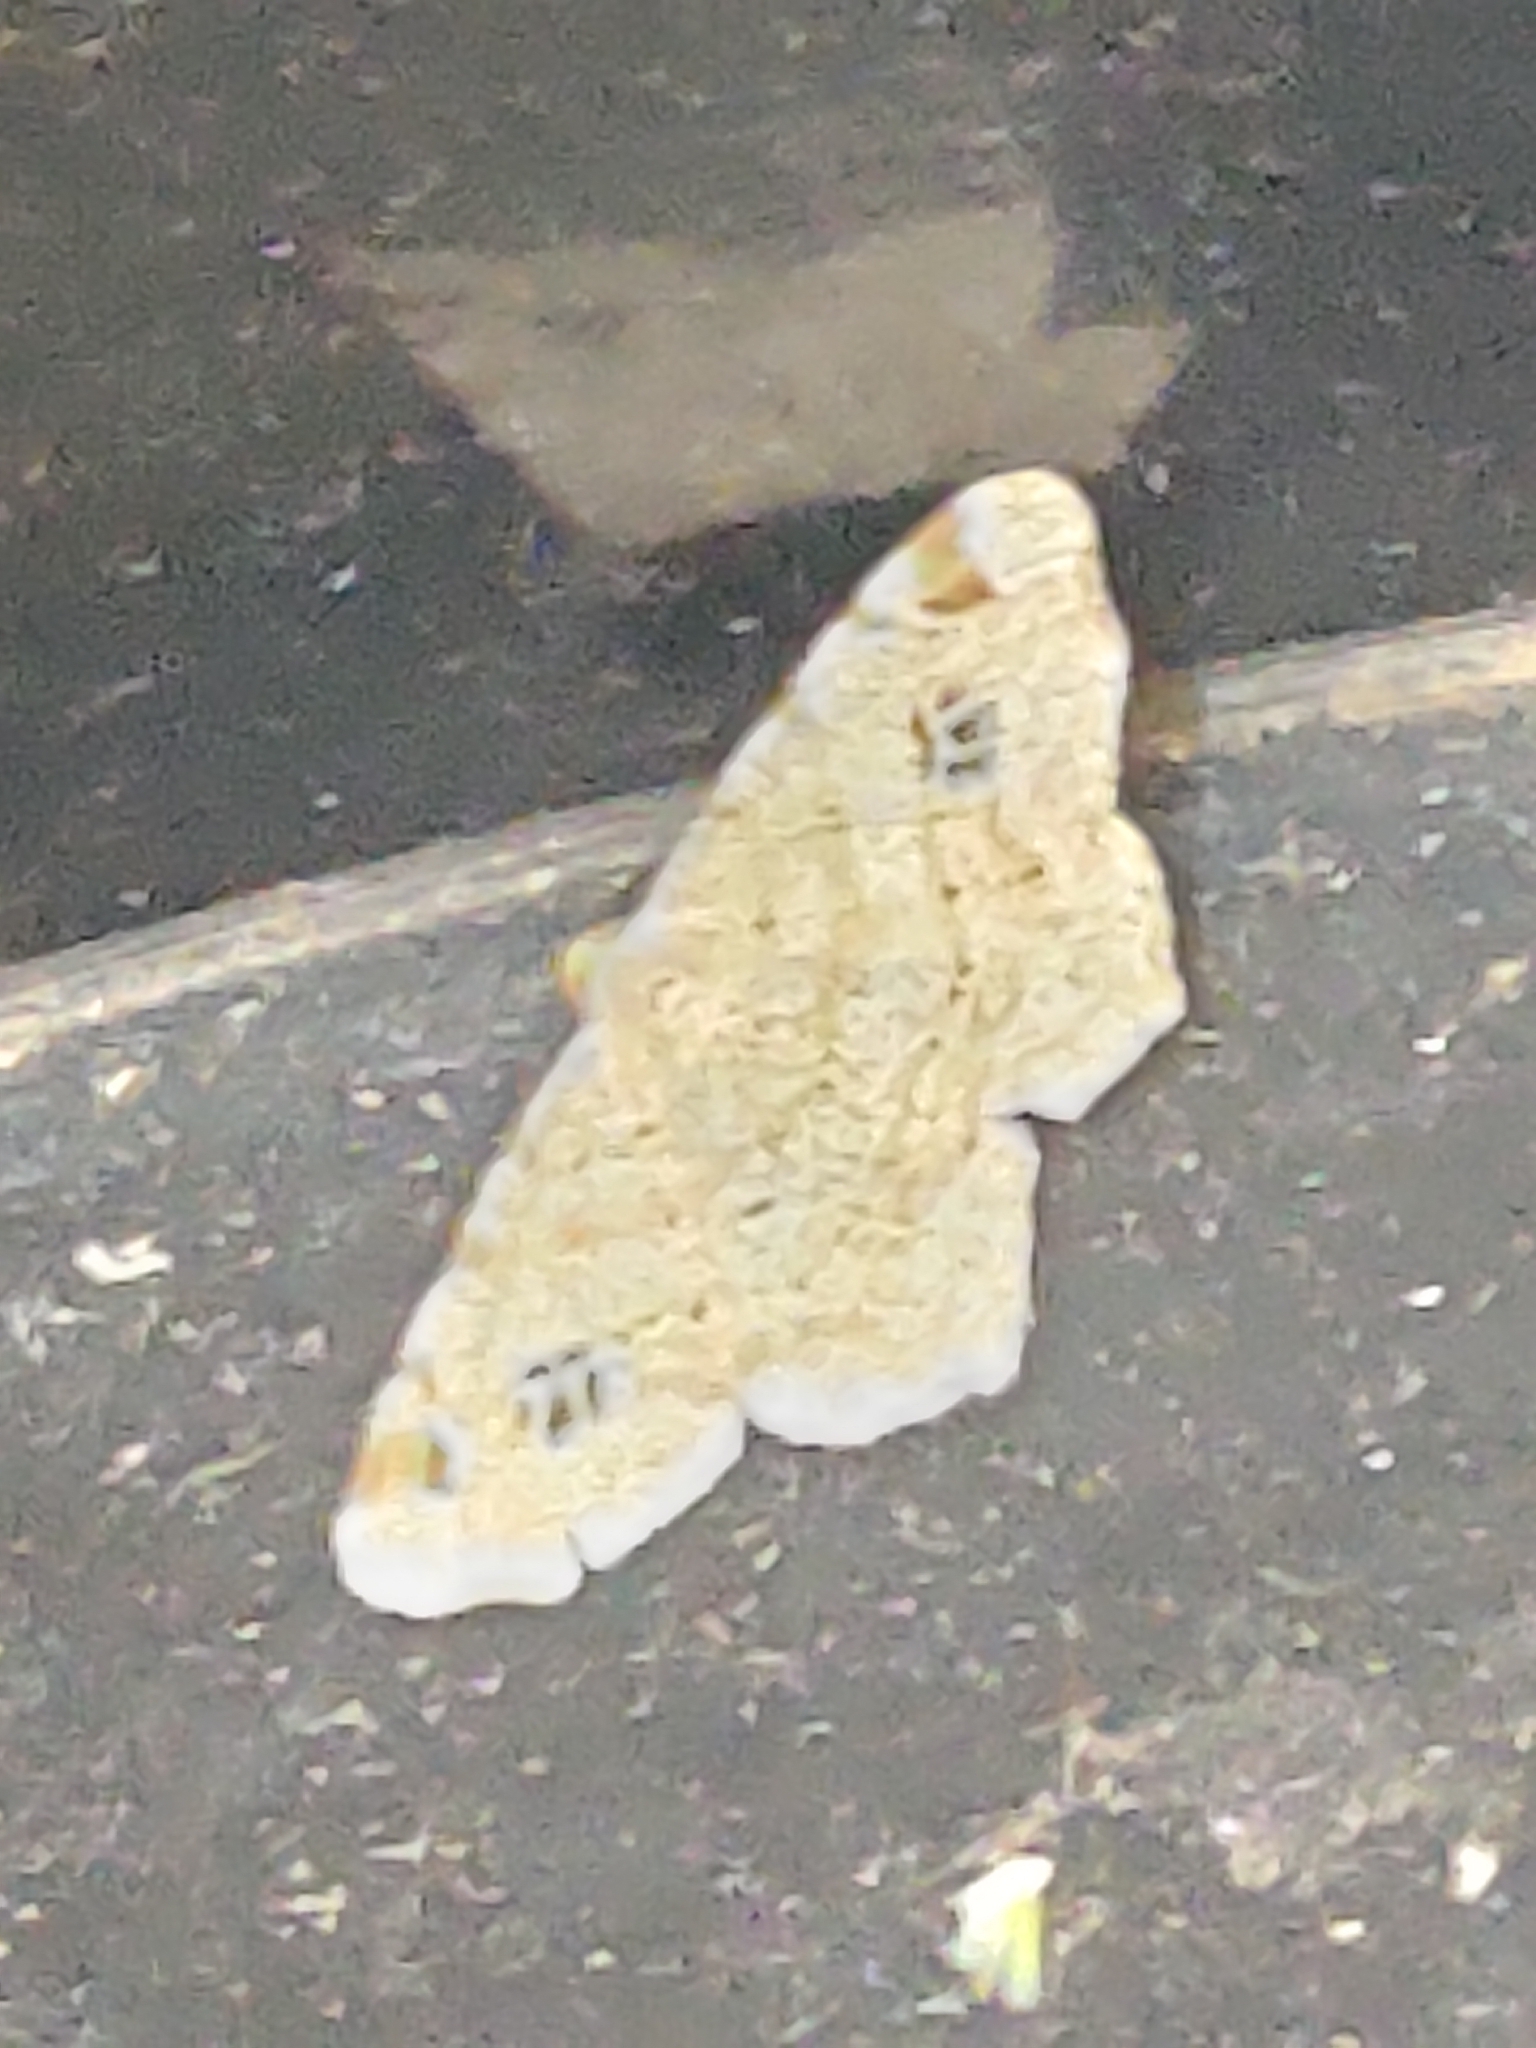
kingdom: Animalia
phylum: Arthropoda
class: Insecta
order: Lepidoptera
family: Geometridae
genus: Macaria
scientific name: Macaria notata
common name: Peacock moth
